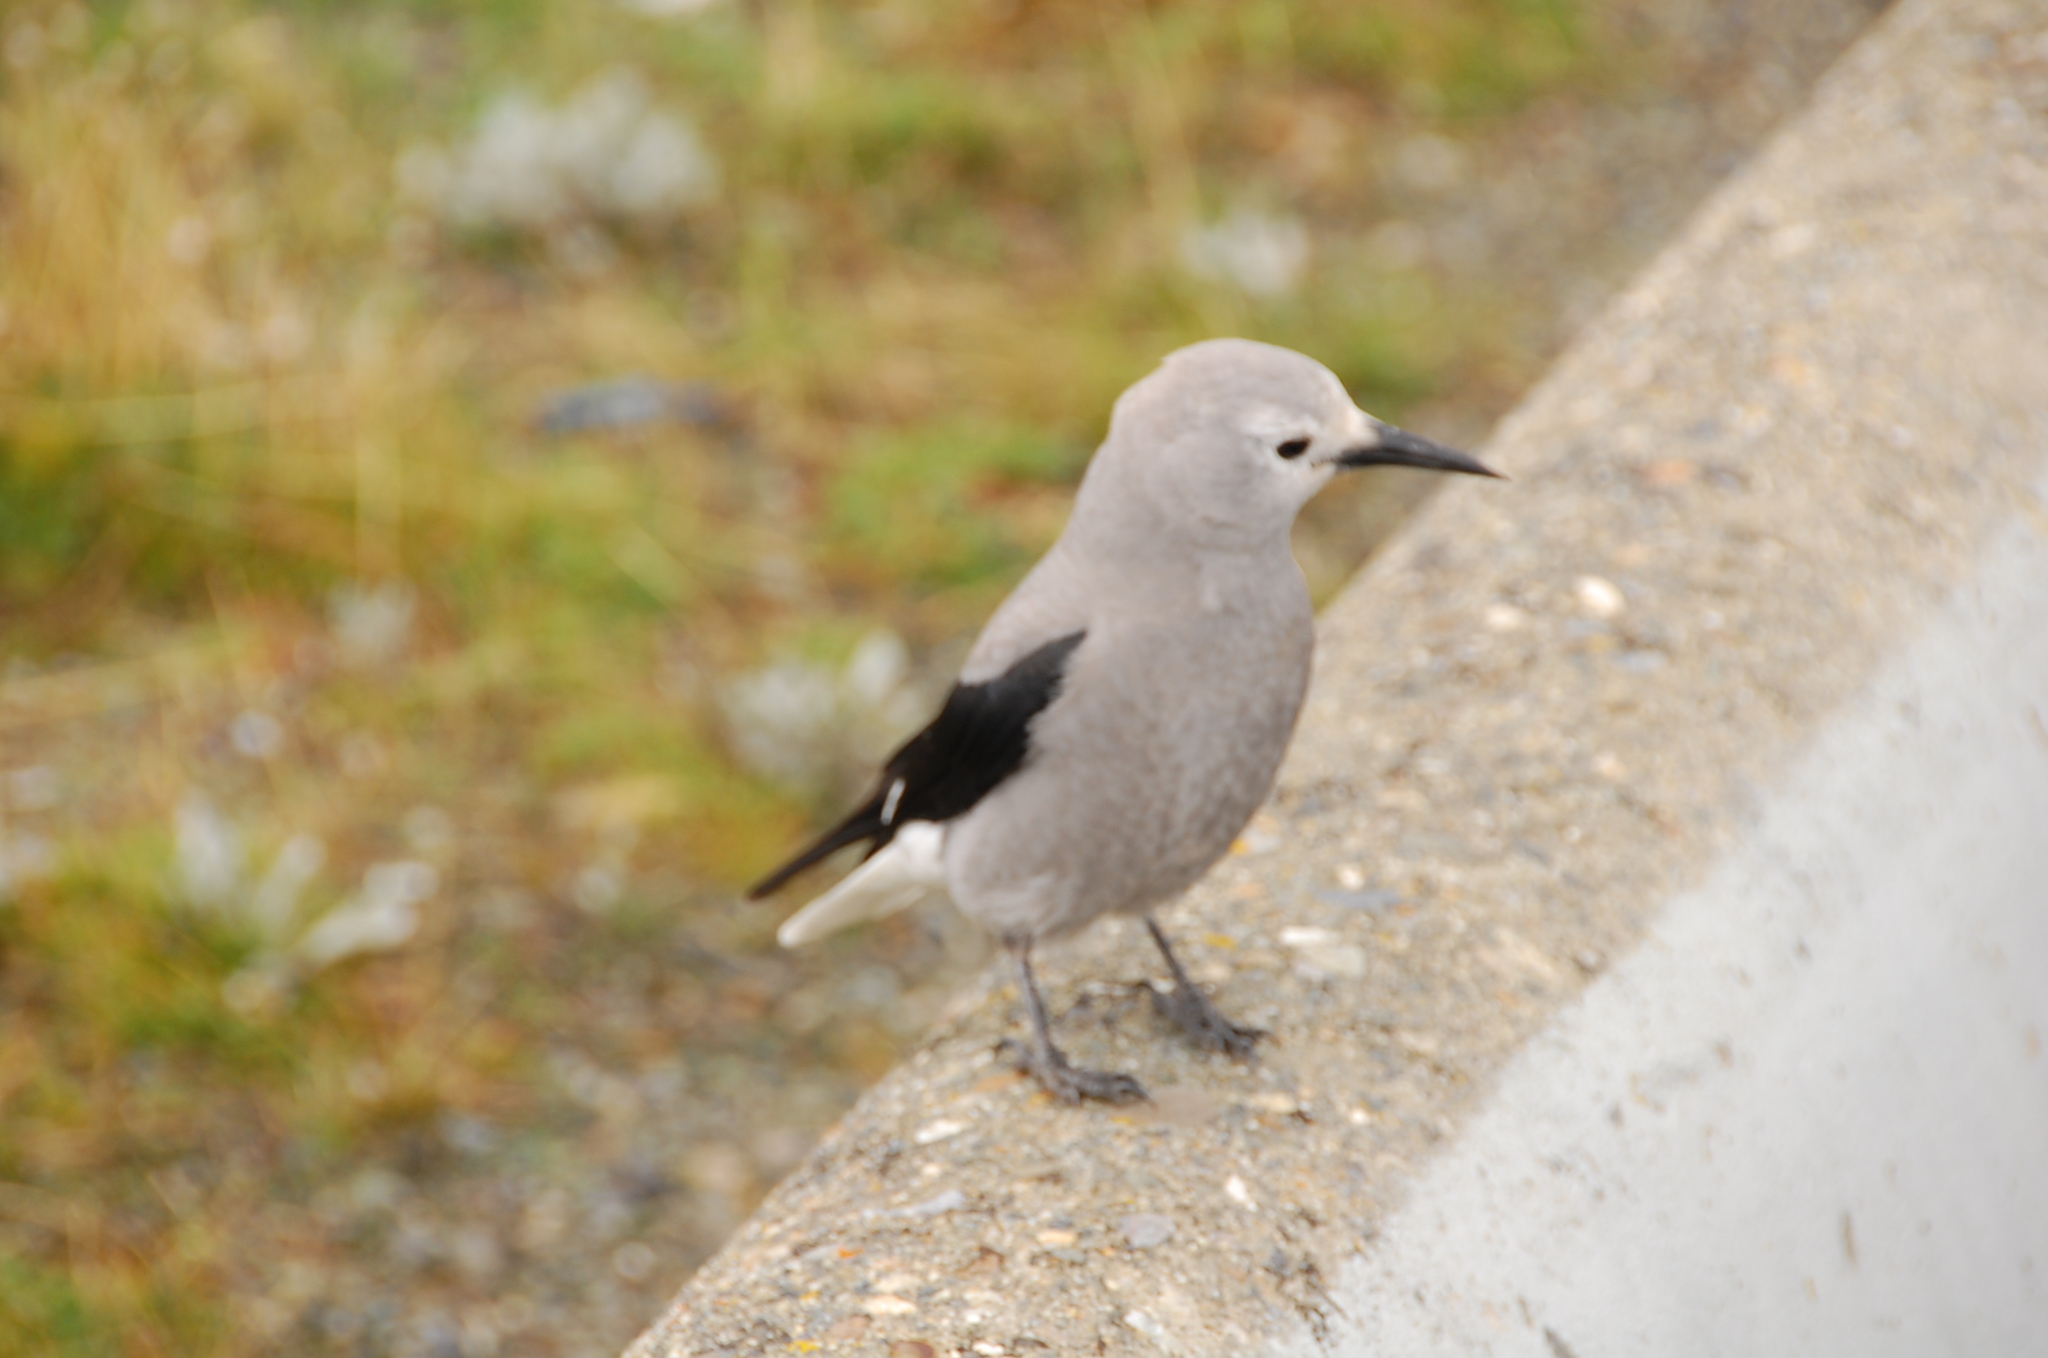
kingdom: Animalia
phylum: Chordata
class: Aves
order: Passeriformes
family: Corvidae
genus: Nucifraga
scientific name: Nucifraga columbiana
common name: Clark's nutcracker
